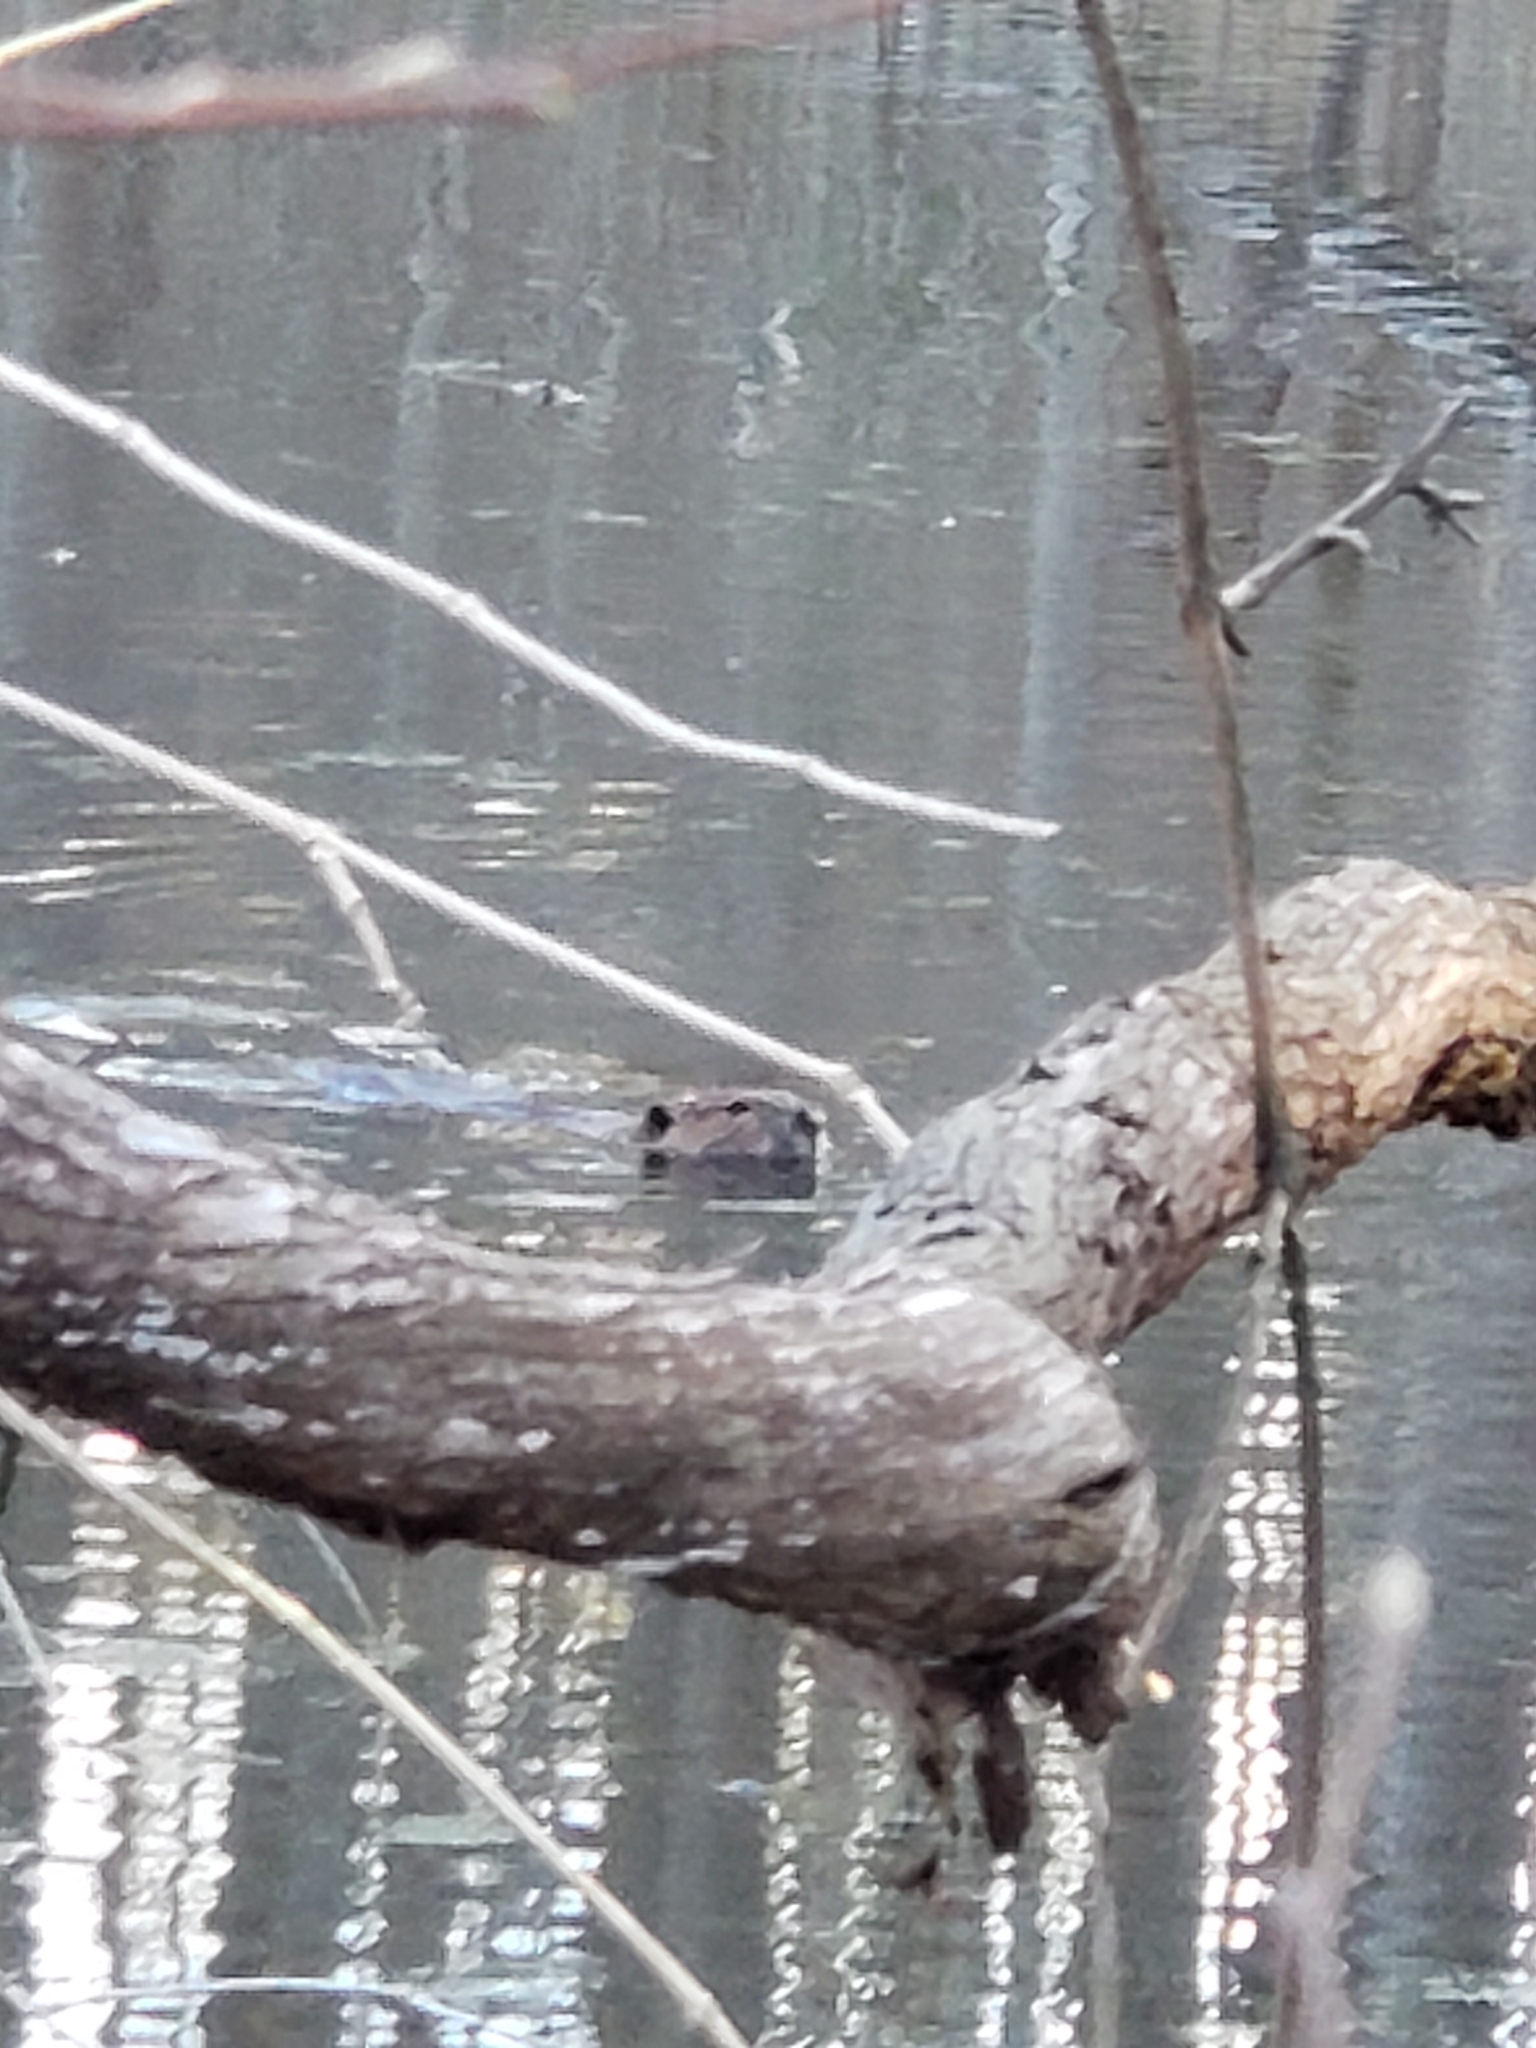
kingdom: Animalia
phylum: Chordata
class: Mammalia
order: Rodentia
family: Castoridae
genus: Castor
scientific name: Castor canadensis
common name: American beaver
